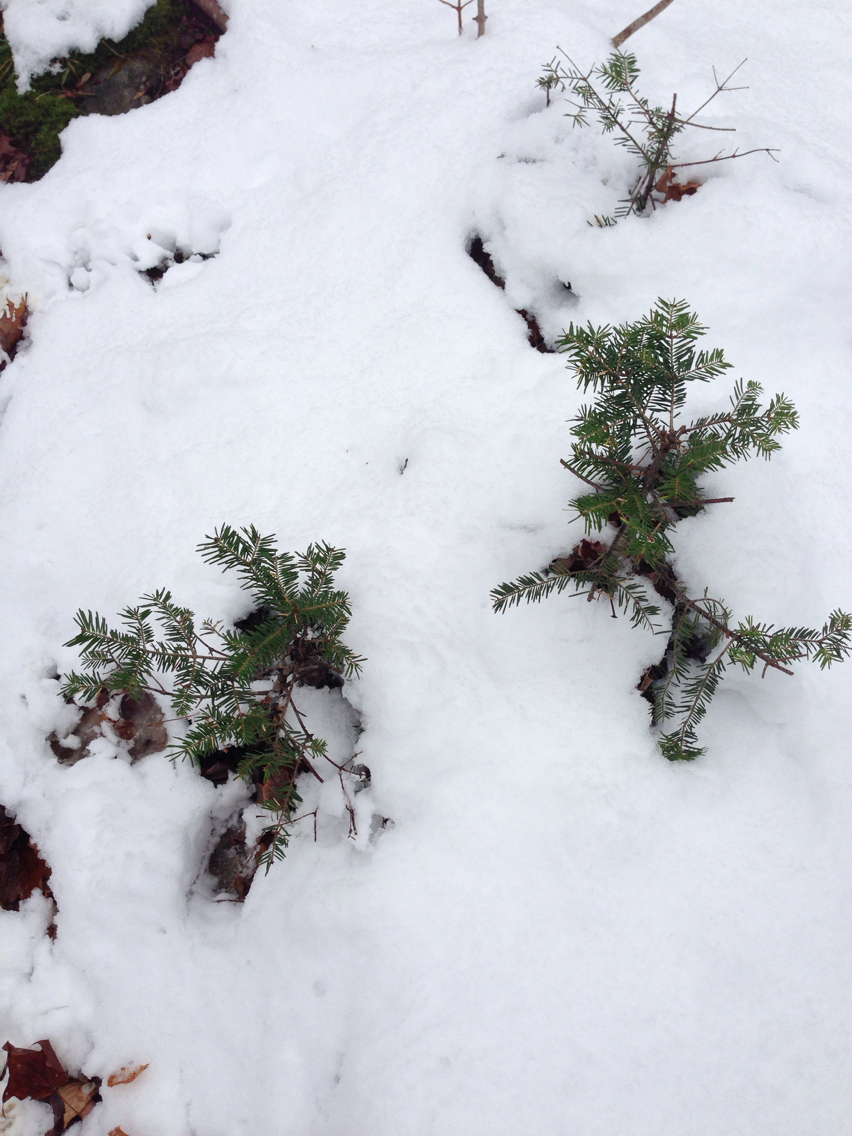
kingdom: Plantae
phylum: Tracheophyta
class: Pinopsida
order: Pinales
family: Pinaceae
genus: Abies
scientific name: Abies balsamea
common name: Balsam fir
